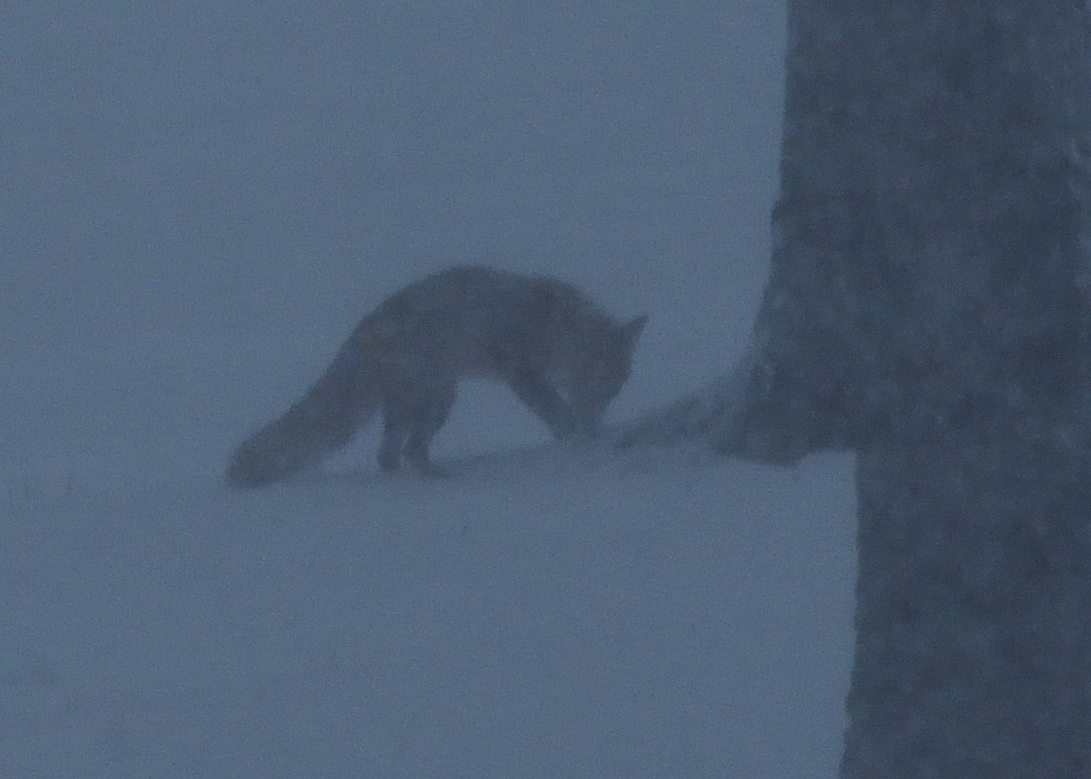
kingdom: Animalia
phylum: Chordata
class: Mammalia
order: Carnivora
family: Canidae
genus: Vulpes
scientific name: Vulpes vulpes
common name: Red fox
